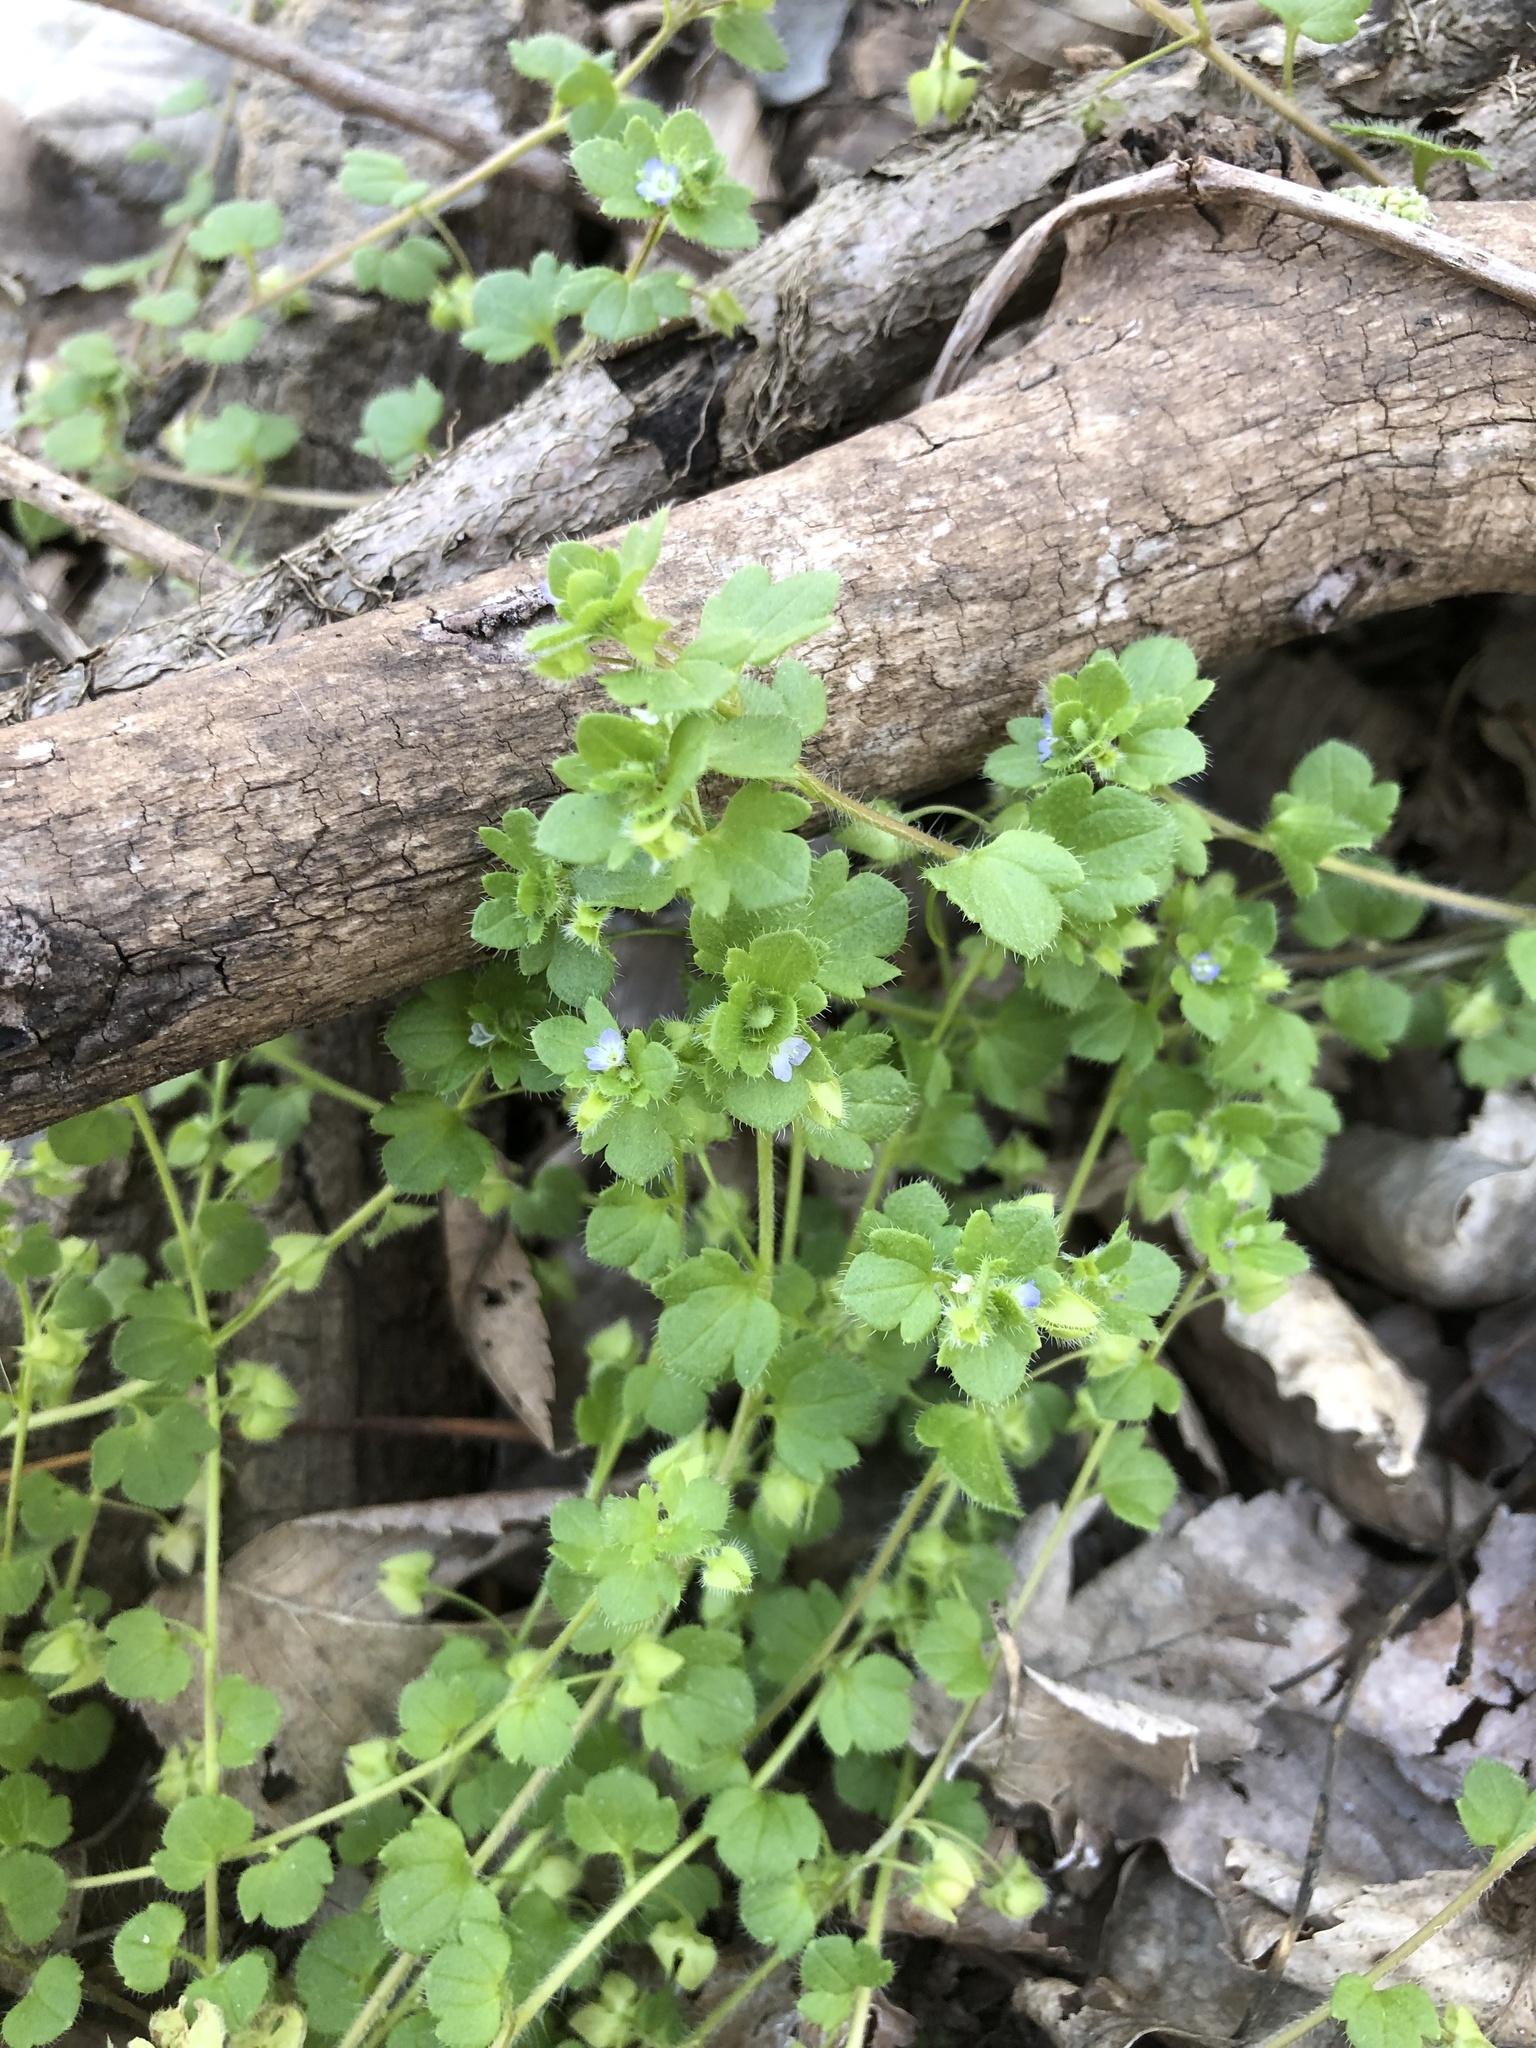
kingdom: Plantae
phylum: Tracheophyta
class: Magnoliopsida
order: Lamiales
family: Plantaginaceae
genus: Veronica
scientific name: Veronica hederifolia
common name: Ivy-leaved speedwell
